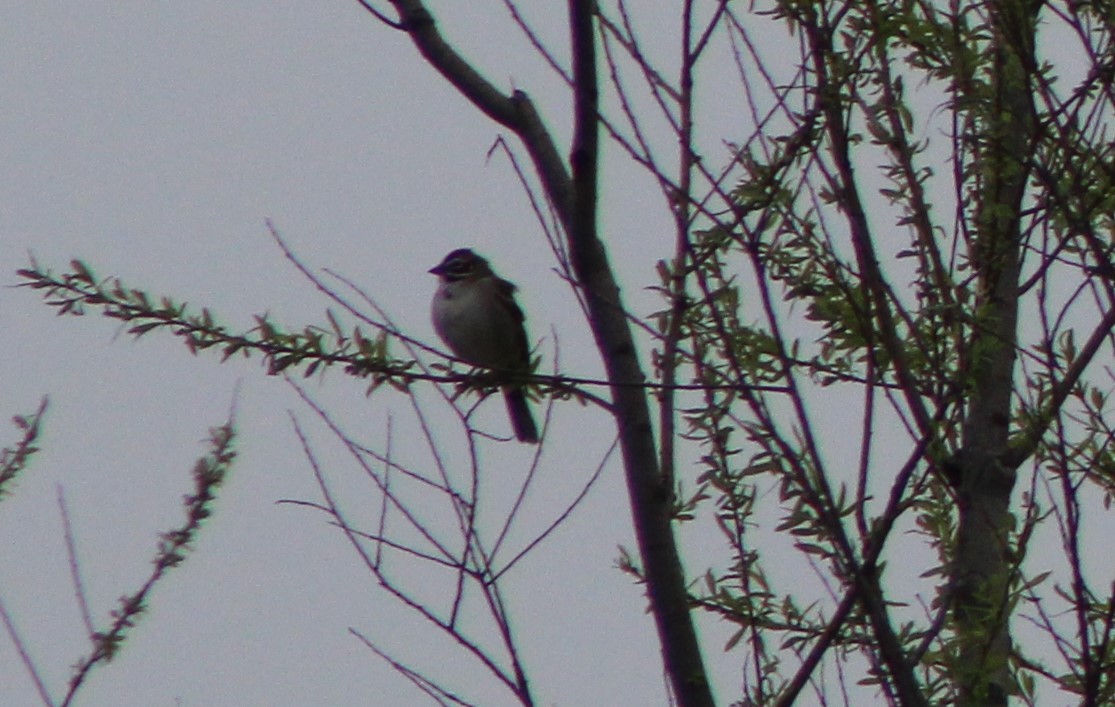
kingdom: Animalia
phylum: Chordata
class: Aves
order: Passeriformes
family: Passerellidae
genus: Chondestes
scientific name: Chondestes grammacus
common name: Lark sparrow
